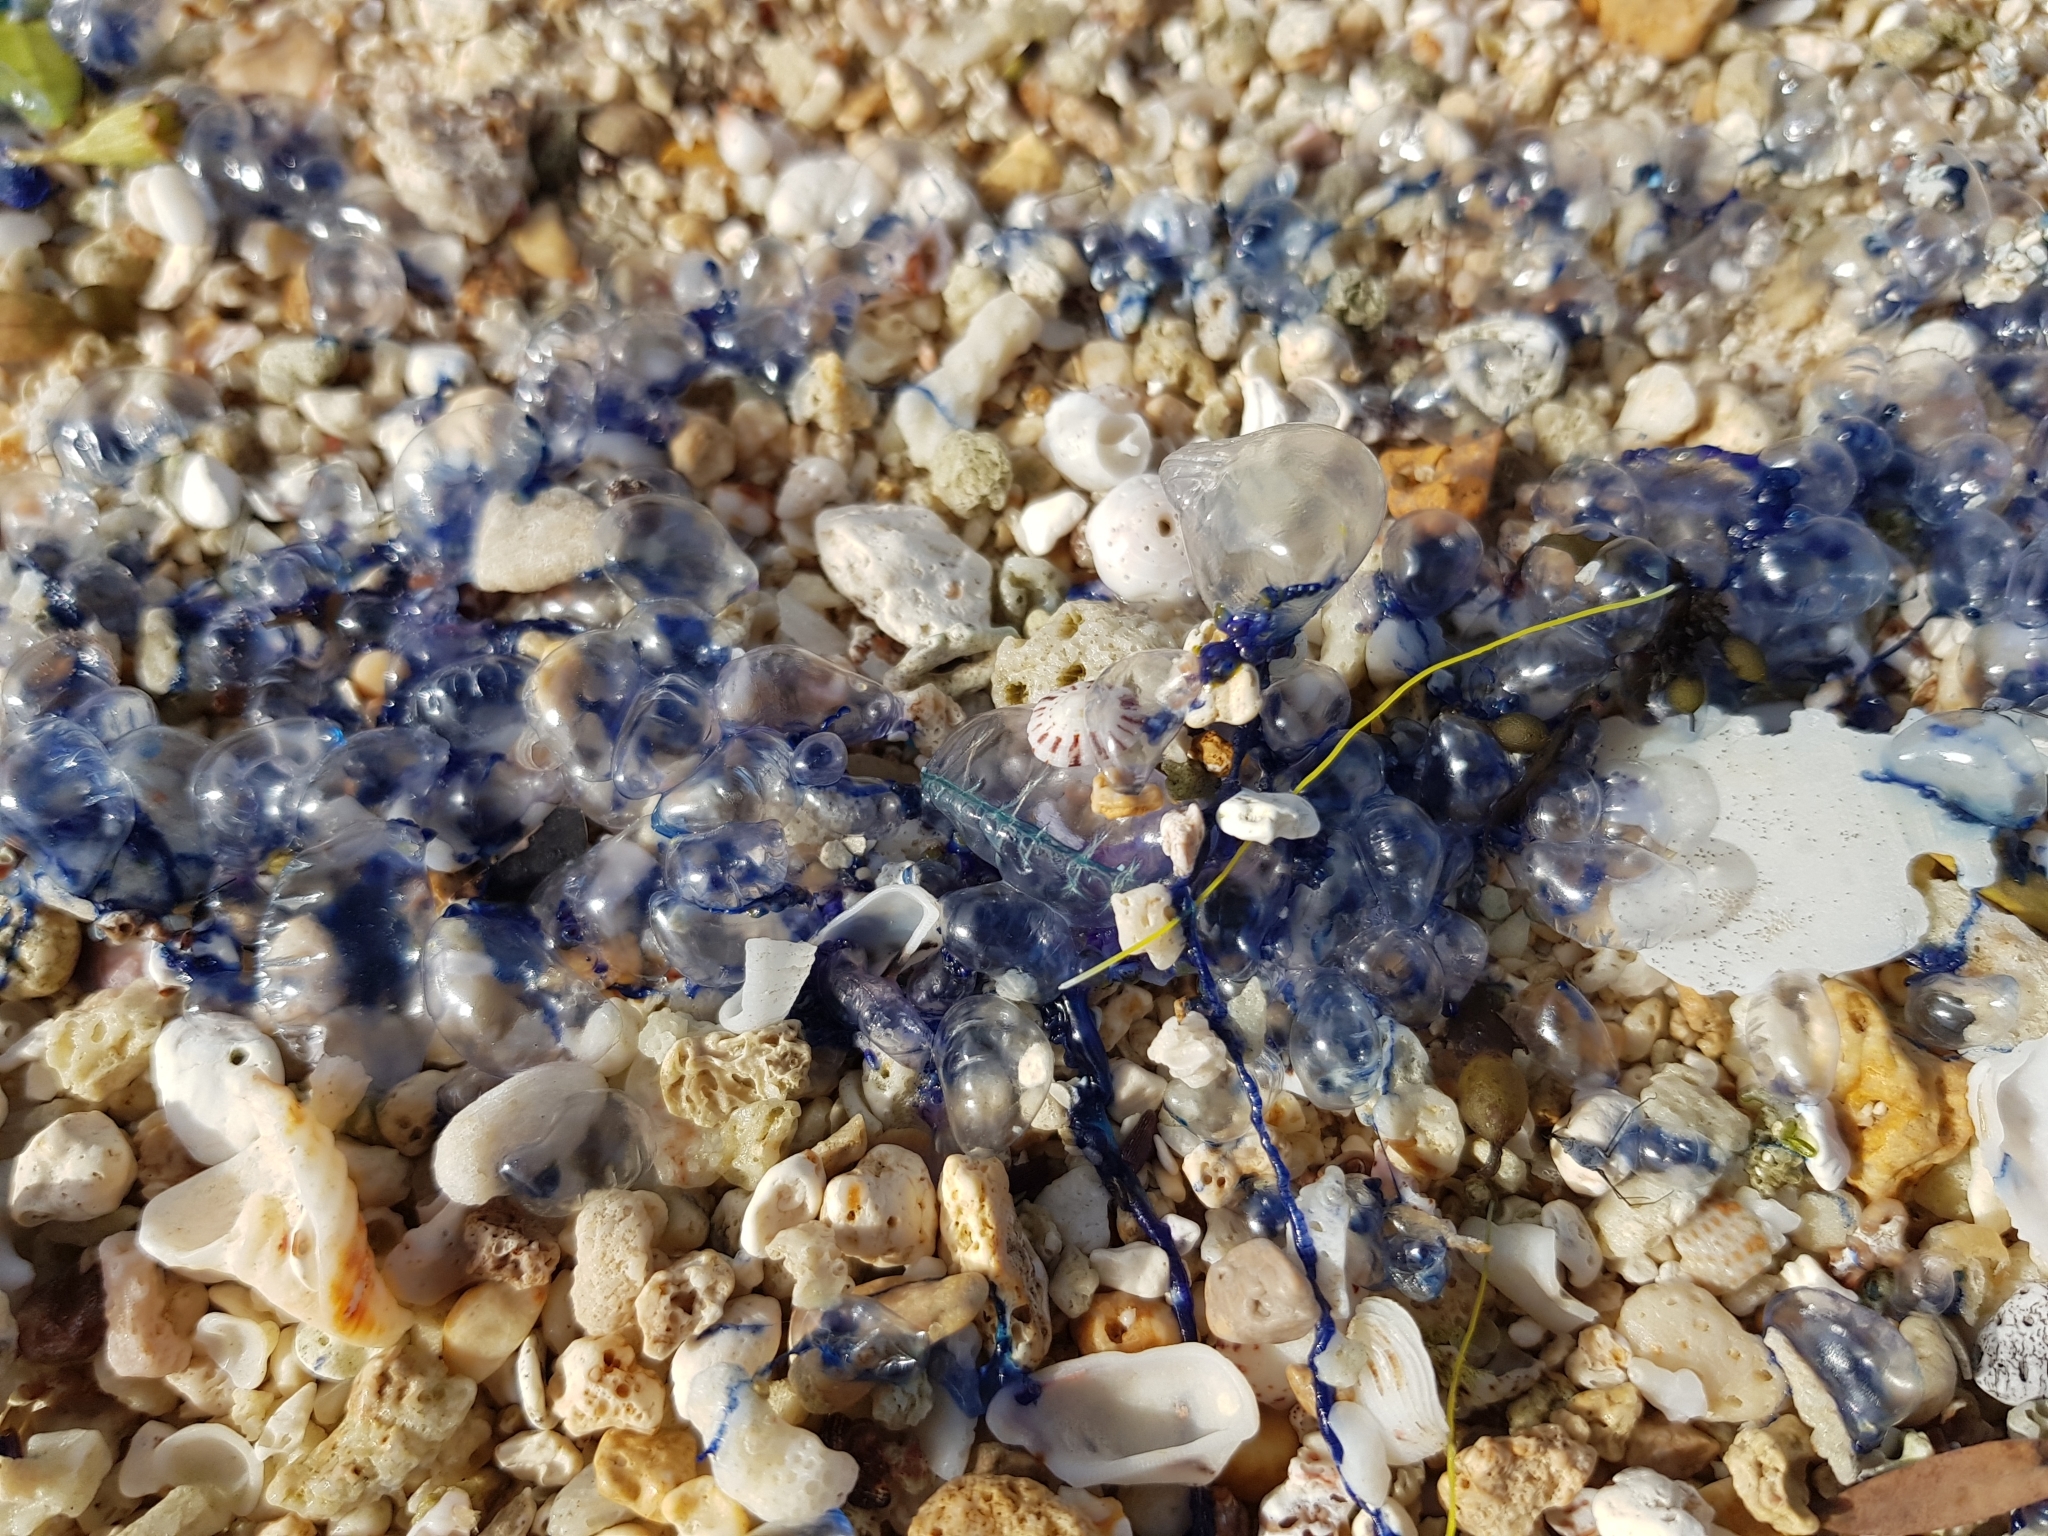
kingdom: Animalia
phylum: Cnidaria
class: Hydrozoa
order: Siphonophorae
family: Physaliidae
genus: Physalia
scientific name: Physalia physalis
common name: Portuguese man-of-war
